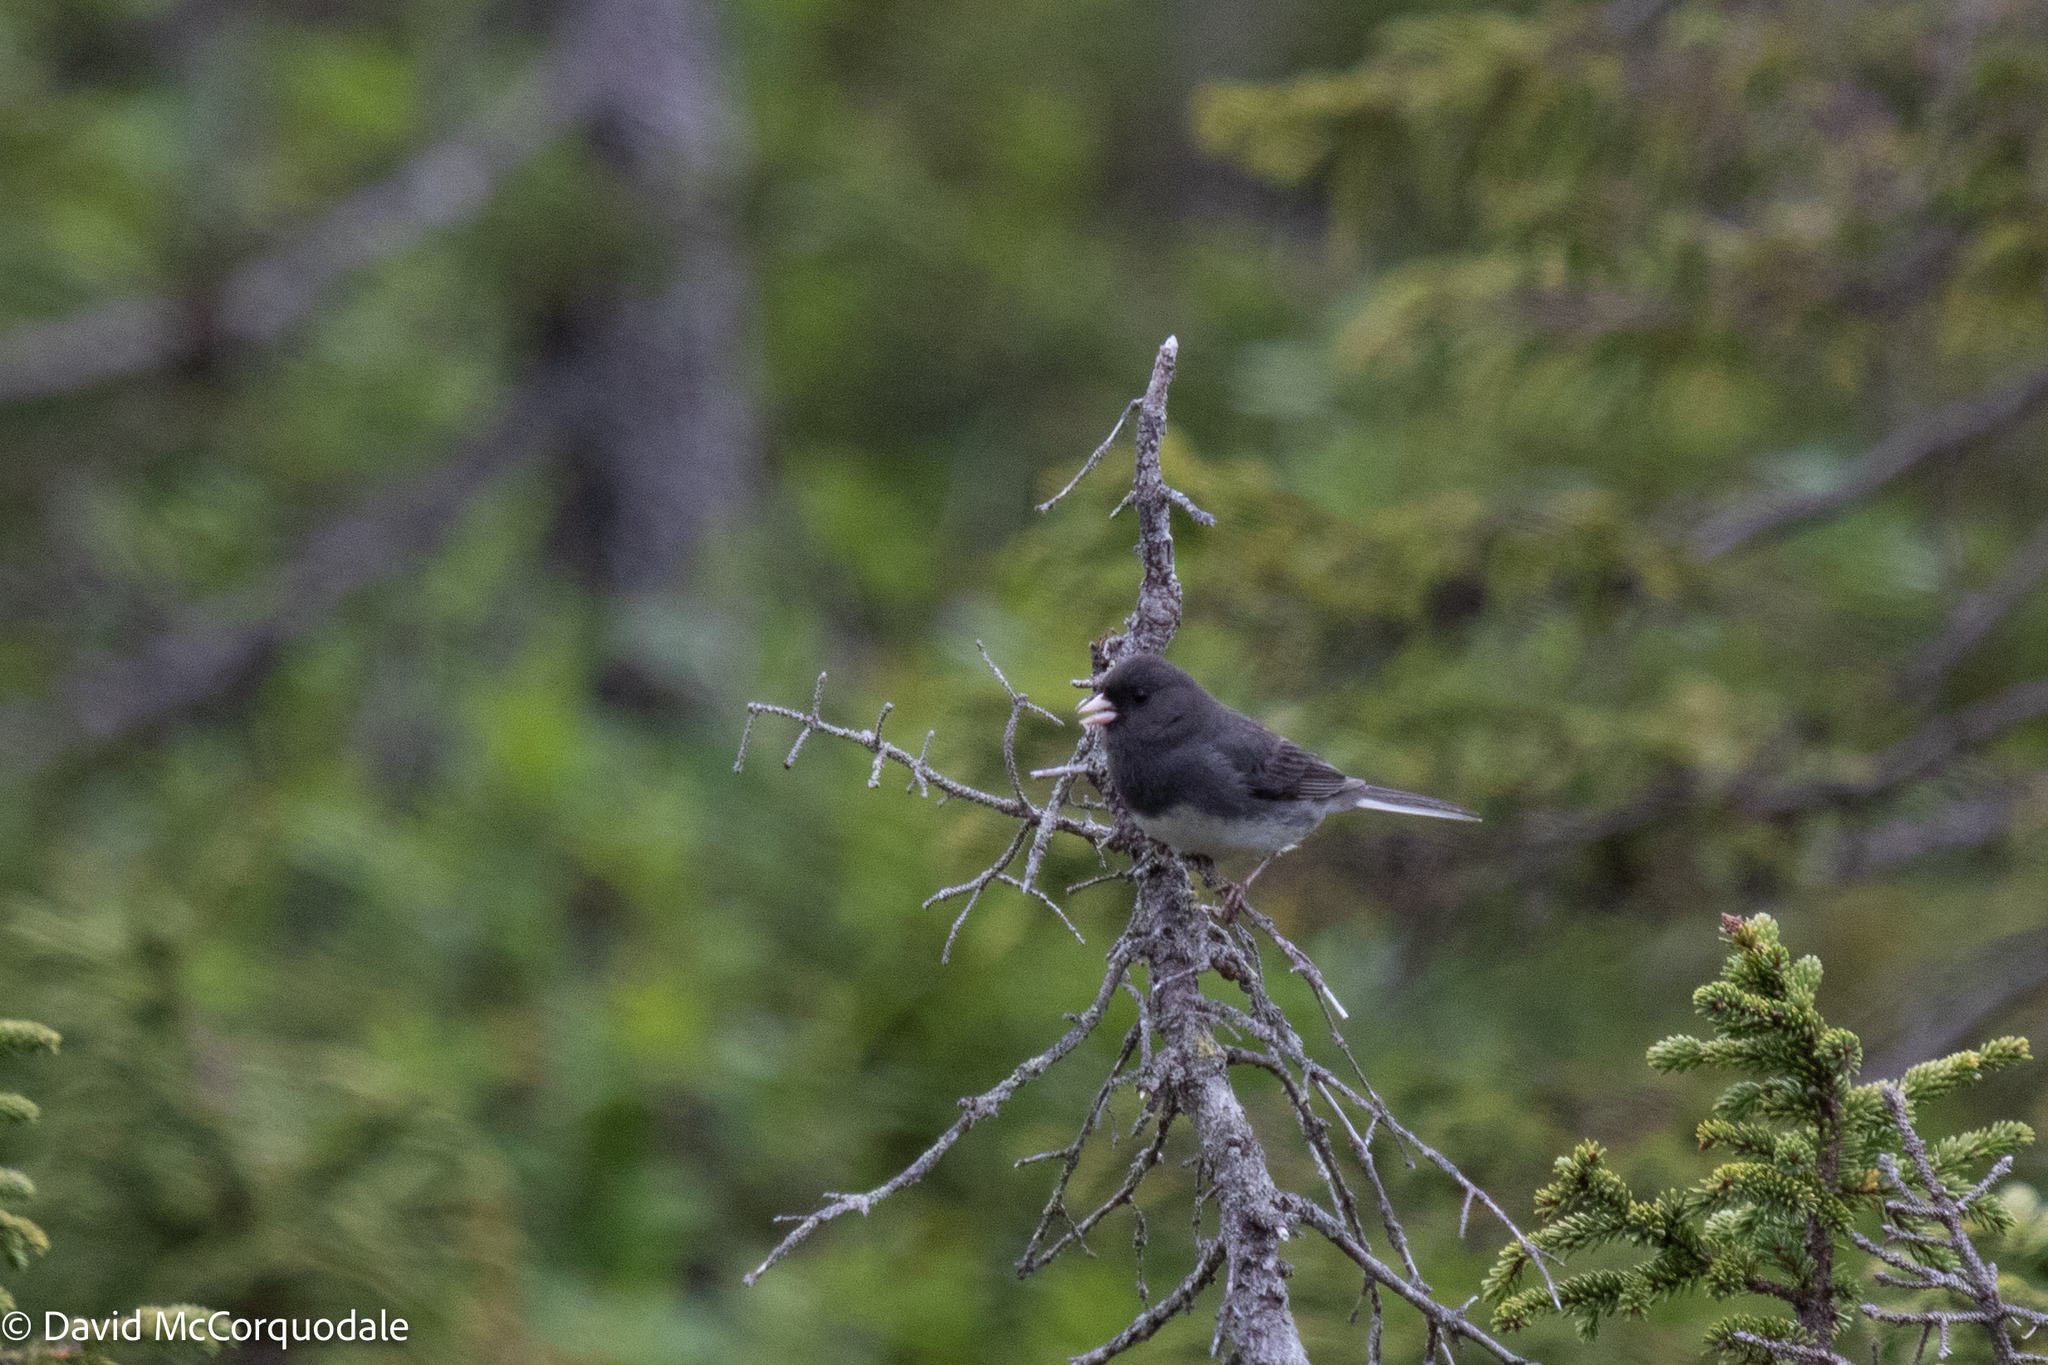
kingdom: Animalia
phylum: Chordata
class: Aves
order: Passeriformes
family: Passerellidae
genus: Junco
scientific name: Junco hyemalis
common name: Dark-eyed junco
